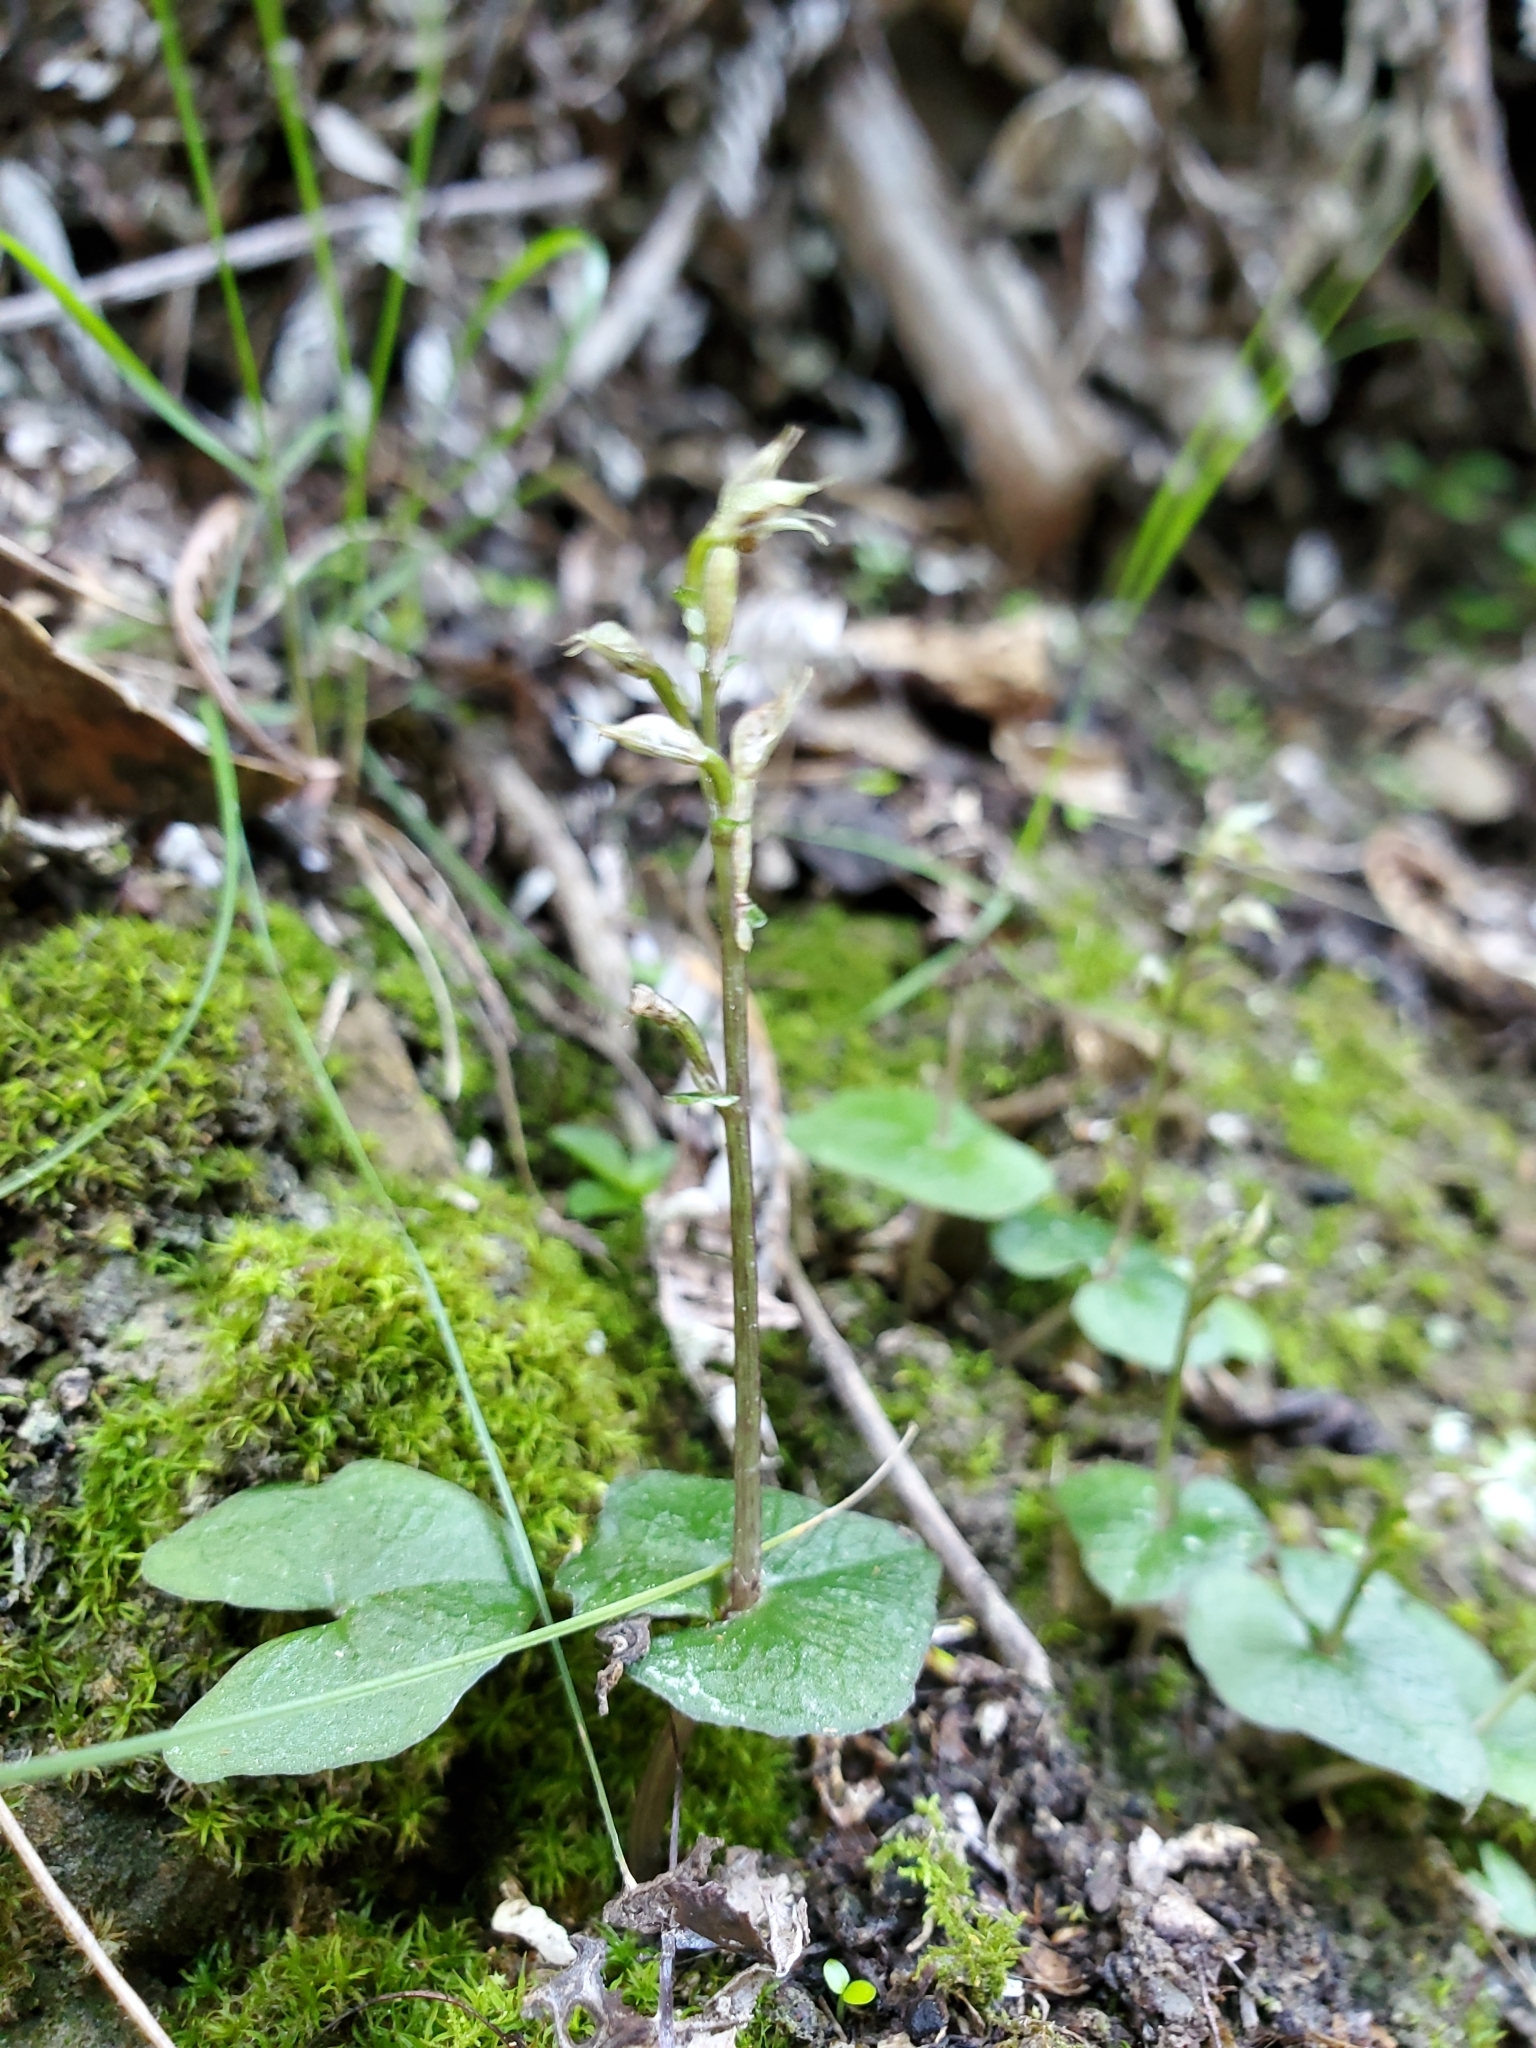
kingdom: Plantae
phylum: Tracheophyta
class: Liliopsida
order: Asparagales
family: Orchidaceae
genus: Acianthus
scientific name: Acianthus sinclairii
